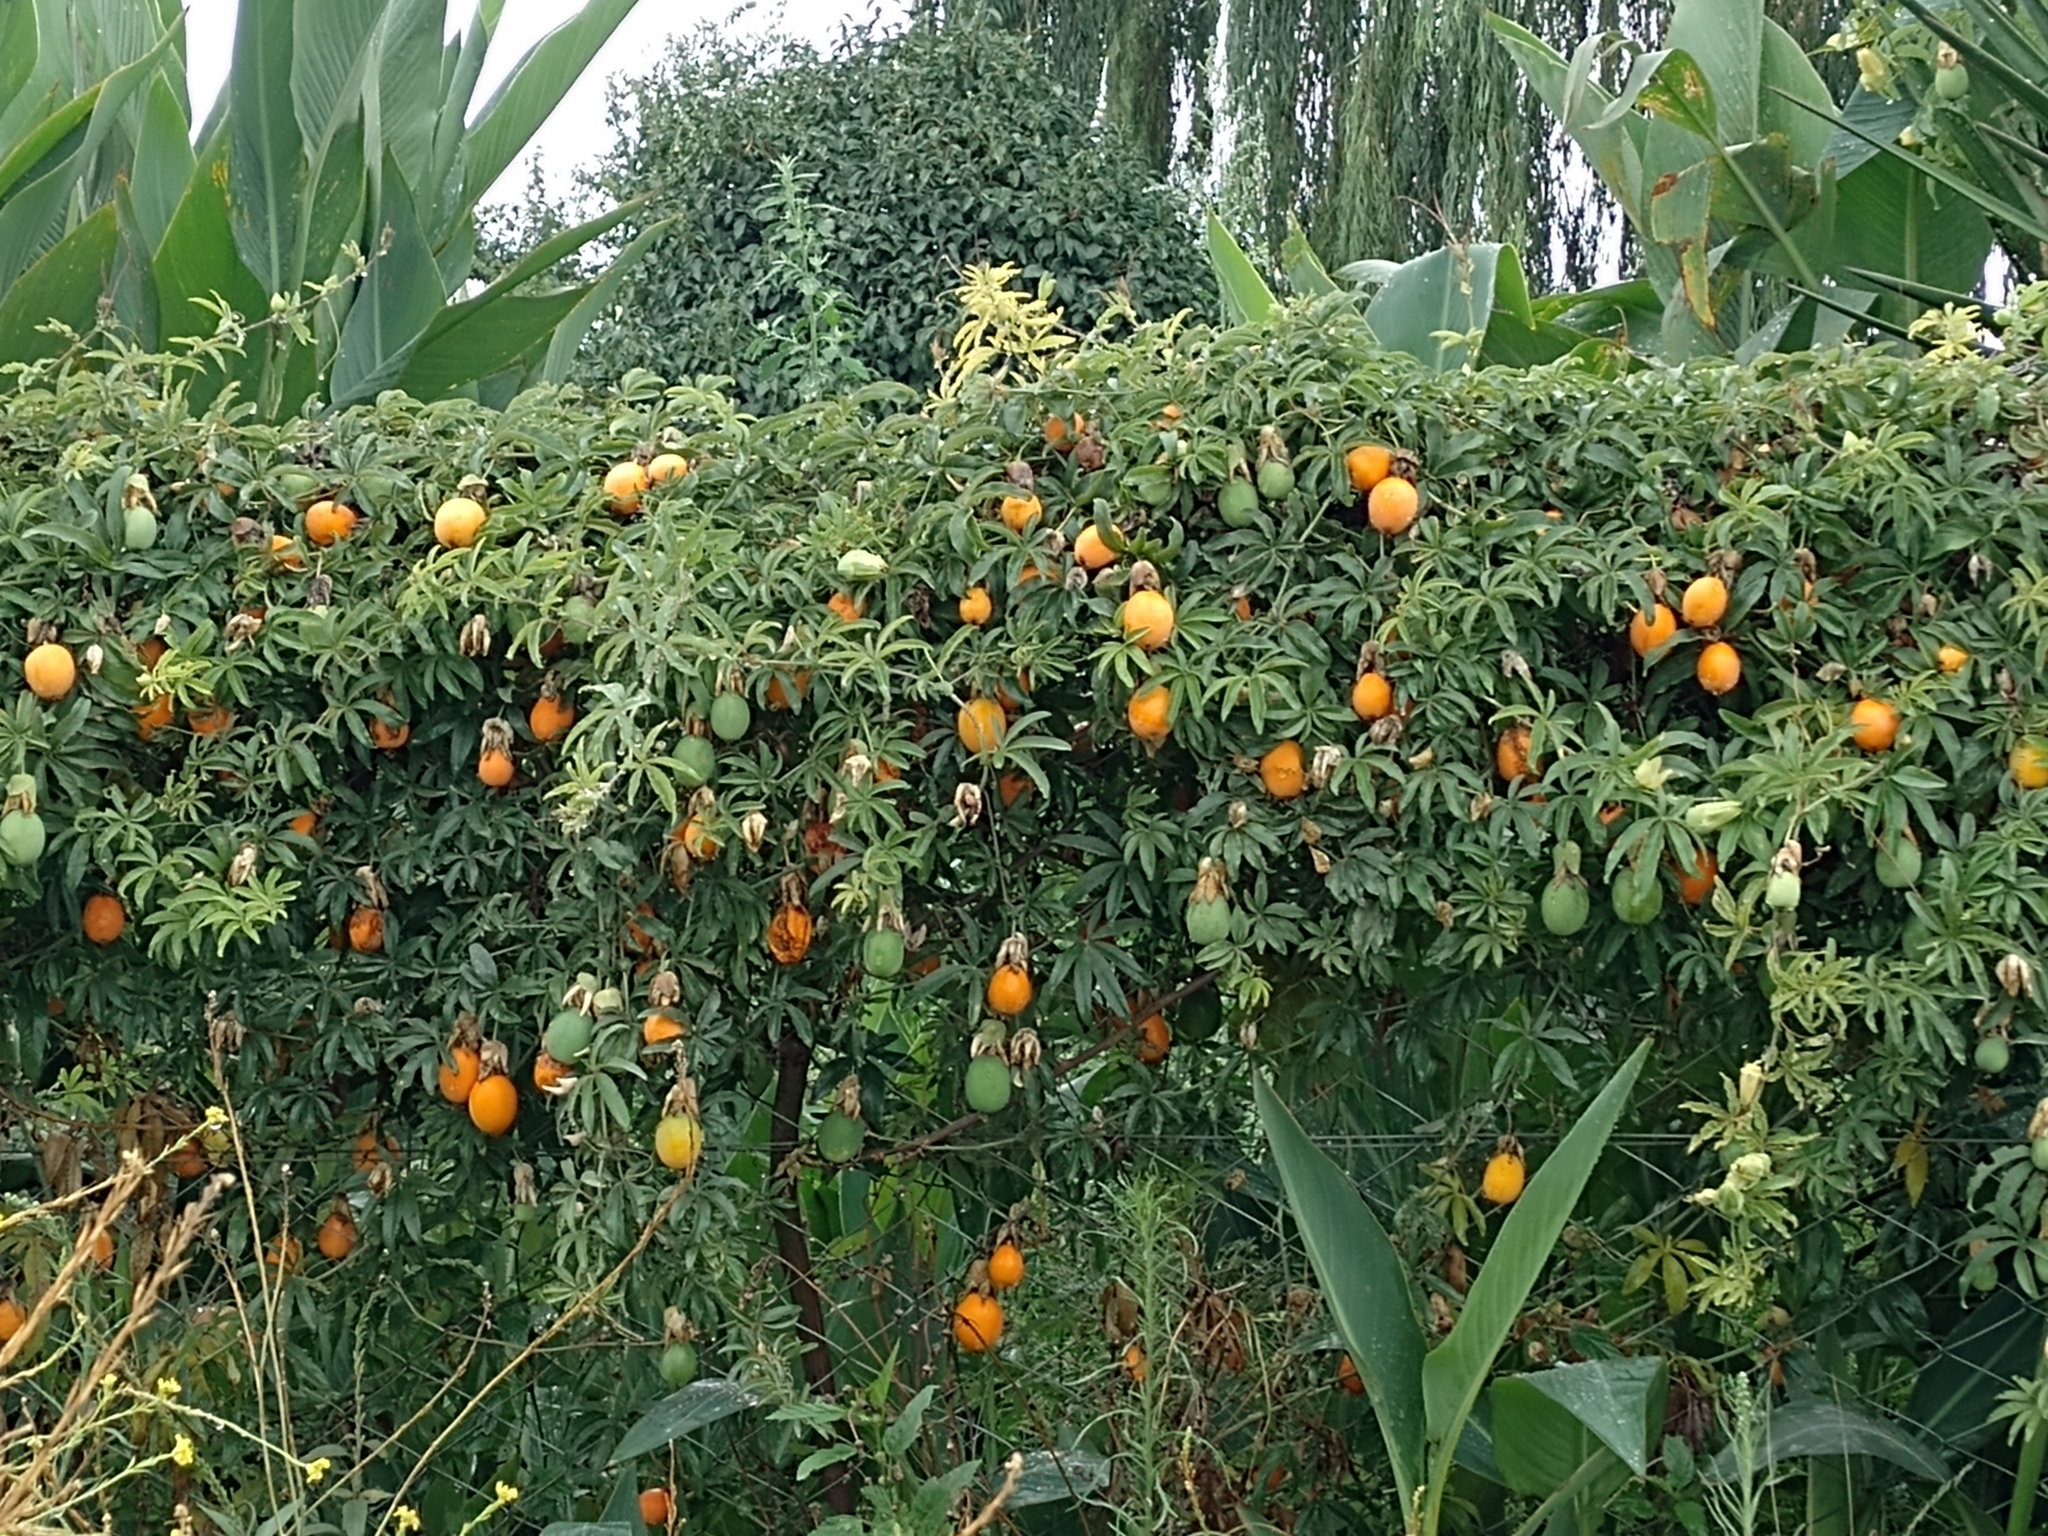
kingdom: Plantae
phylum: Tracheophyta
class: Magnoliopsida
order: Malpighiales
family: Passifloraceae
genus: Passiflora
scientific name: Passiflora caerulea
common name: Blue passionflower
